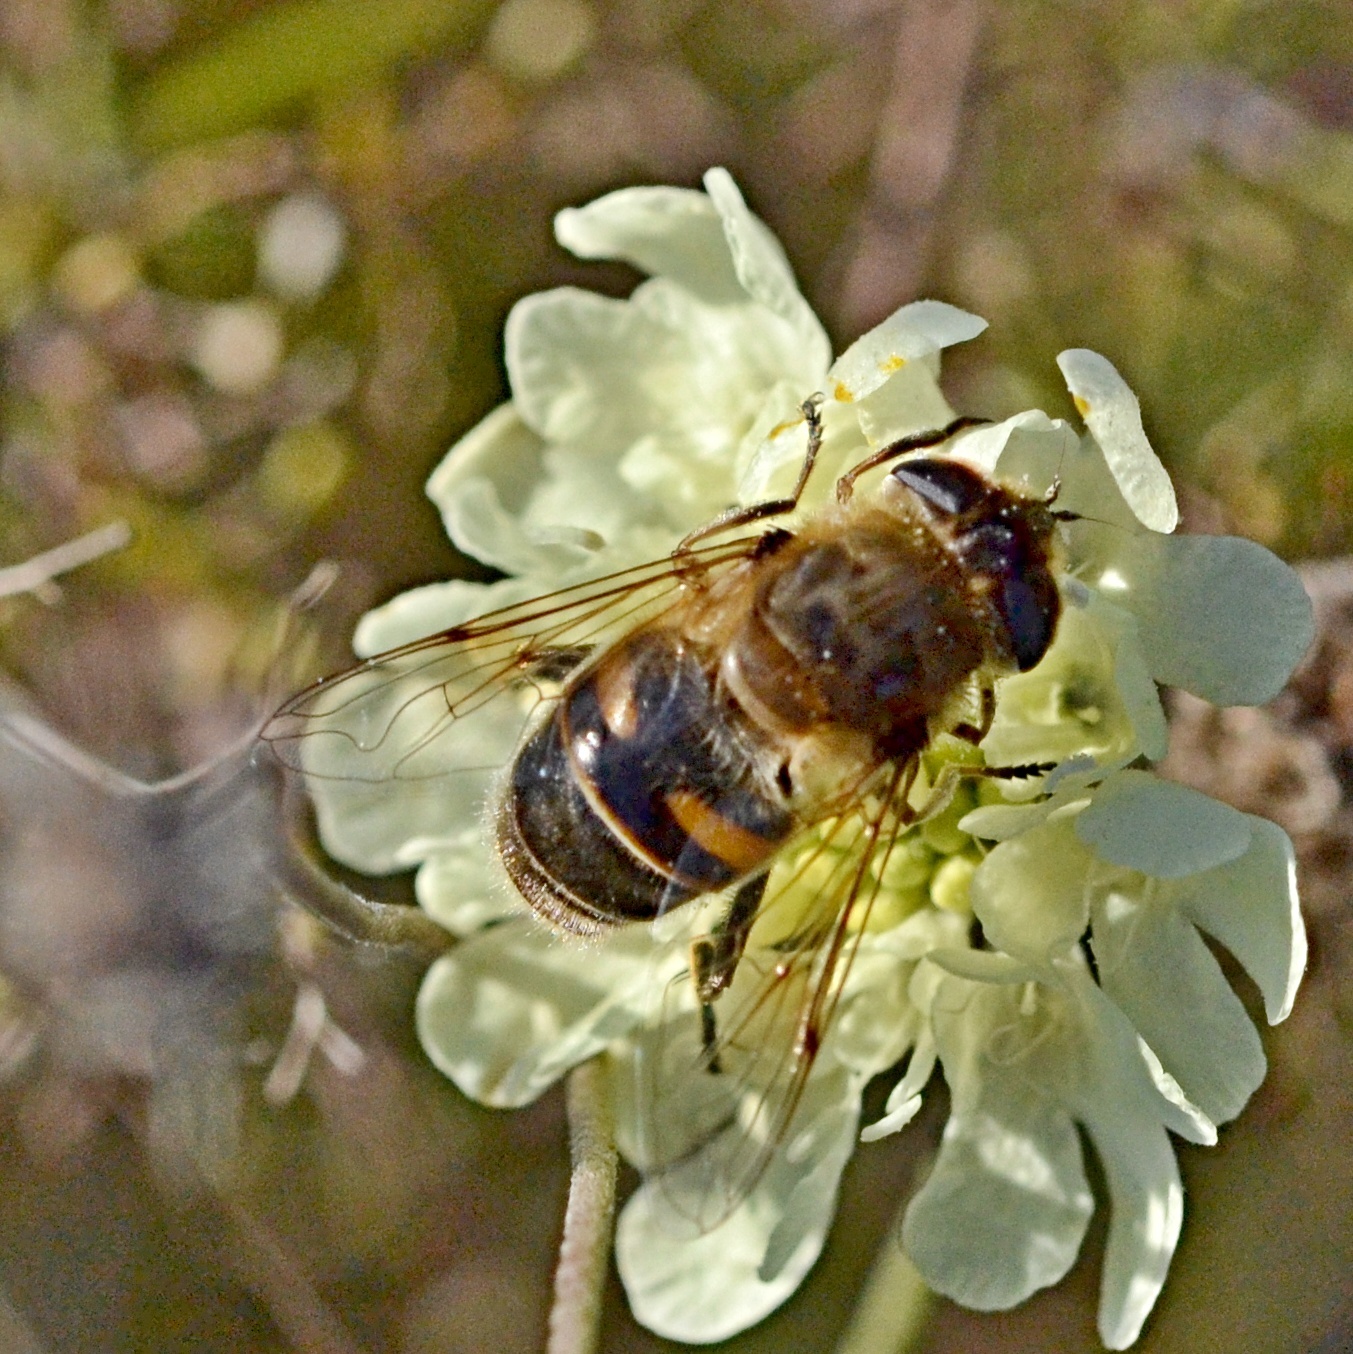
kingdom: Animalia
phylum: Arthropoda
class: Insecta
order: Diptera
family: Syrphidae
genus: Eristalis
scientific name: Eristalis tenax
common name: Drone fly
